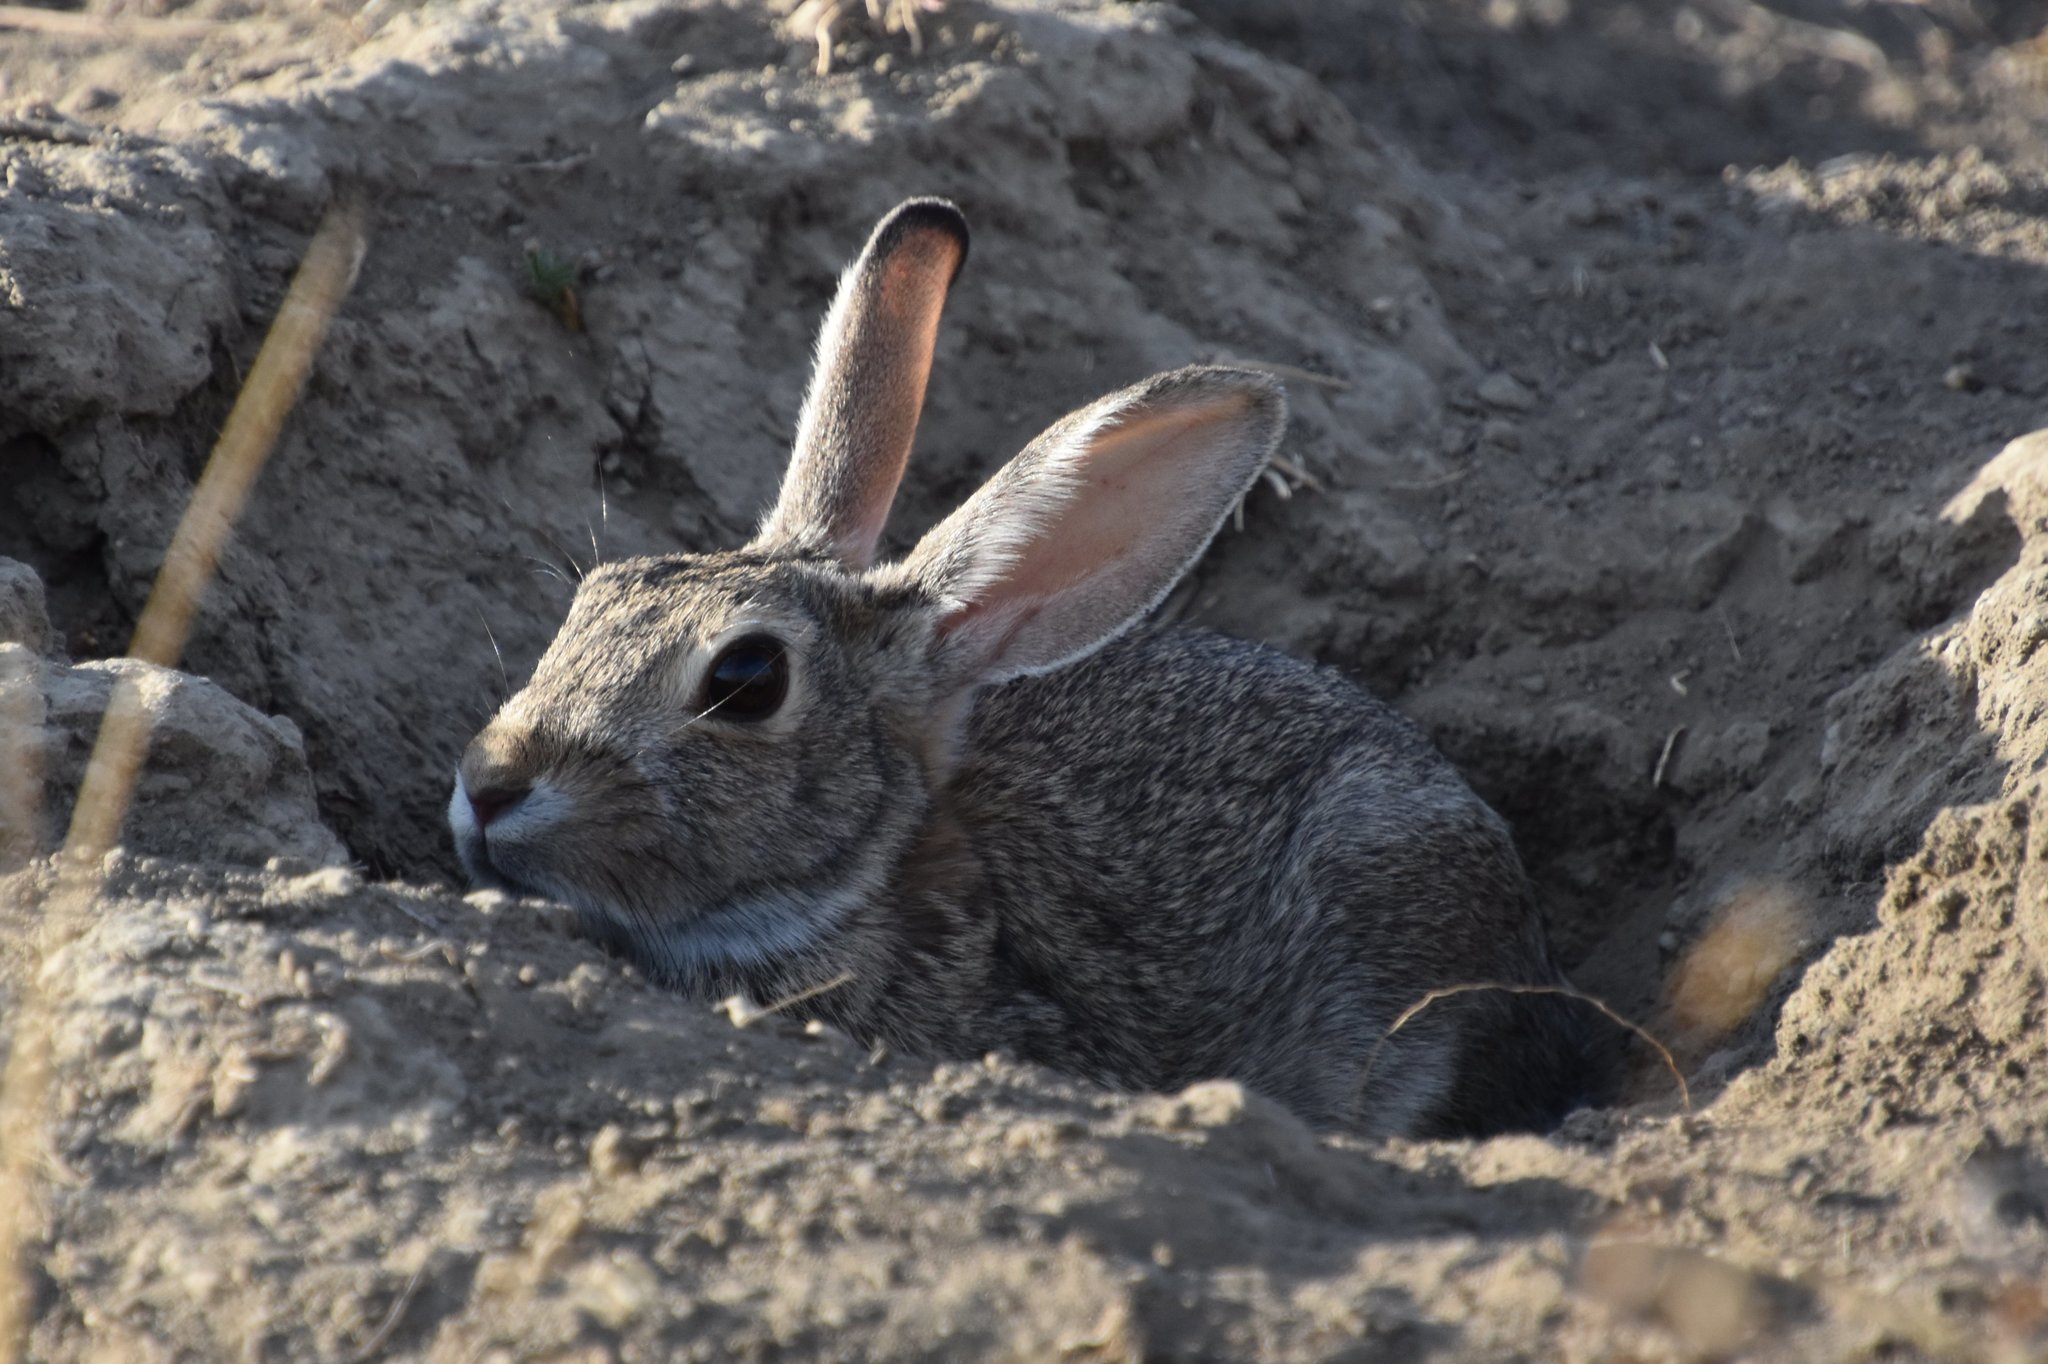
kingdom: Animalia
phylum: Chordata
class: Mammalia
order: Lagomorpha
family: Leporidae
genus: Sylvilagus
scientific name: Sylvilagus audubonii
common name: Desert cottontail
